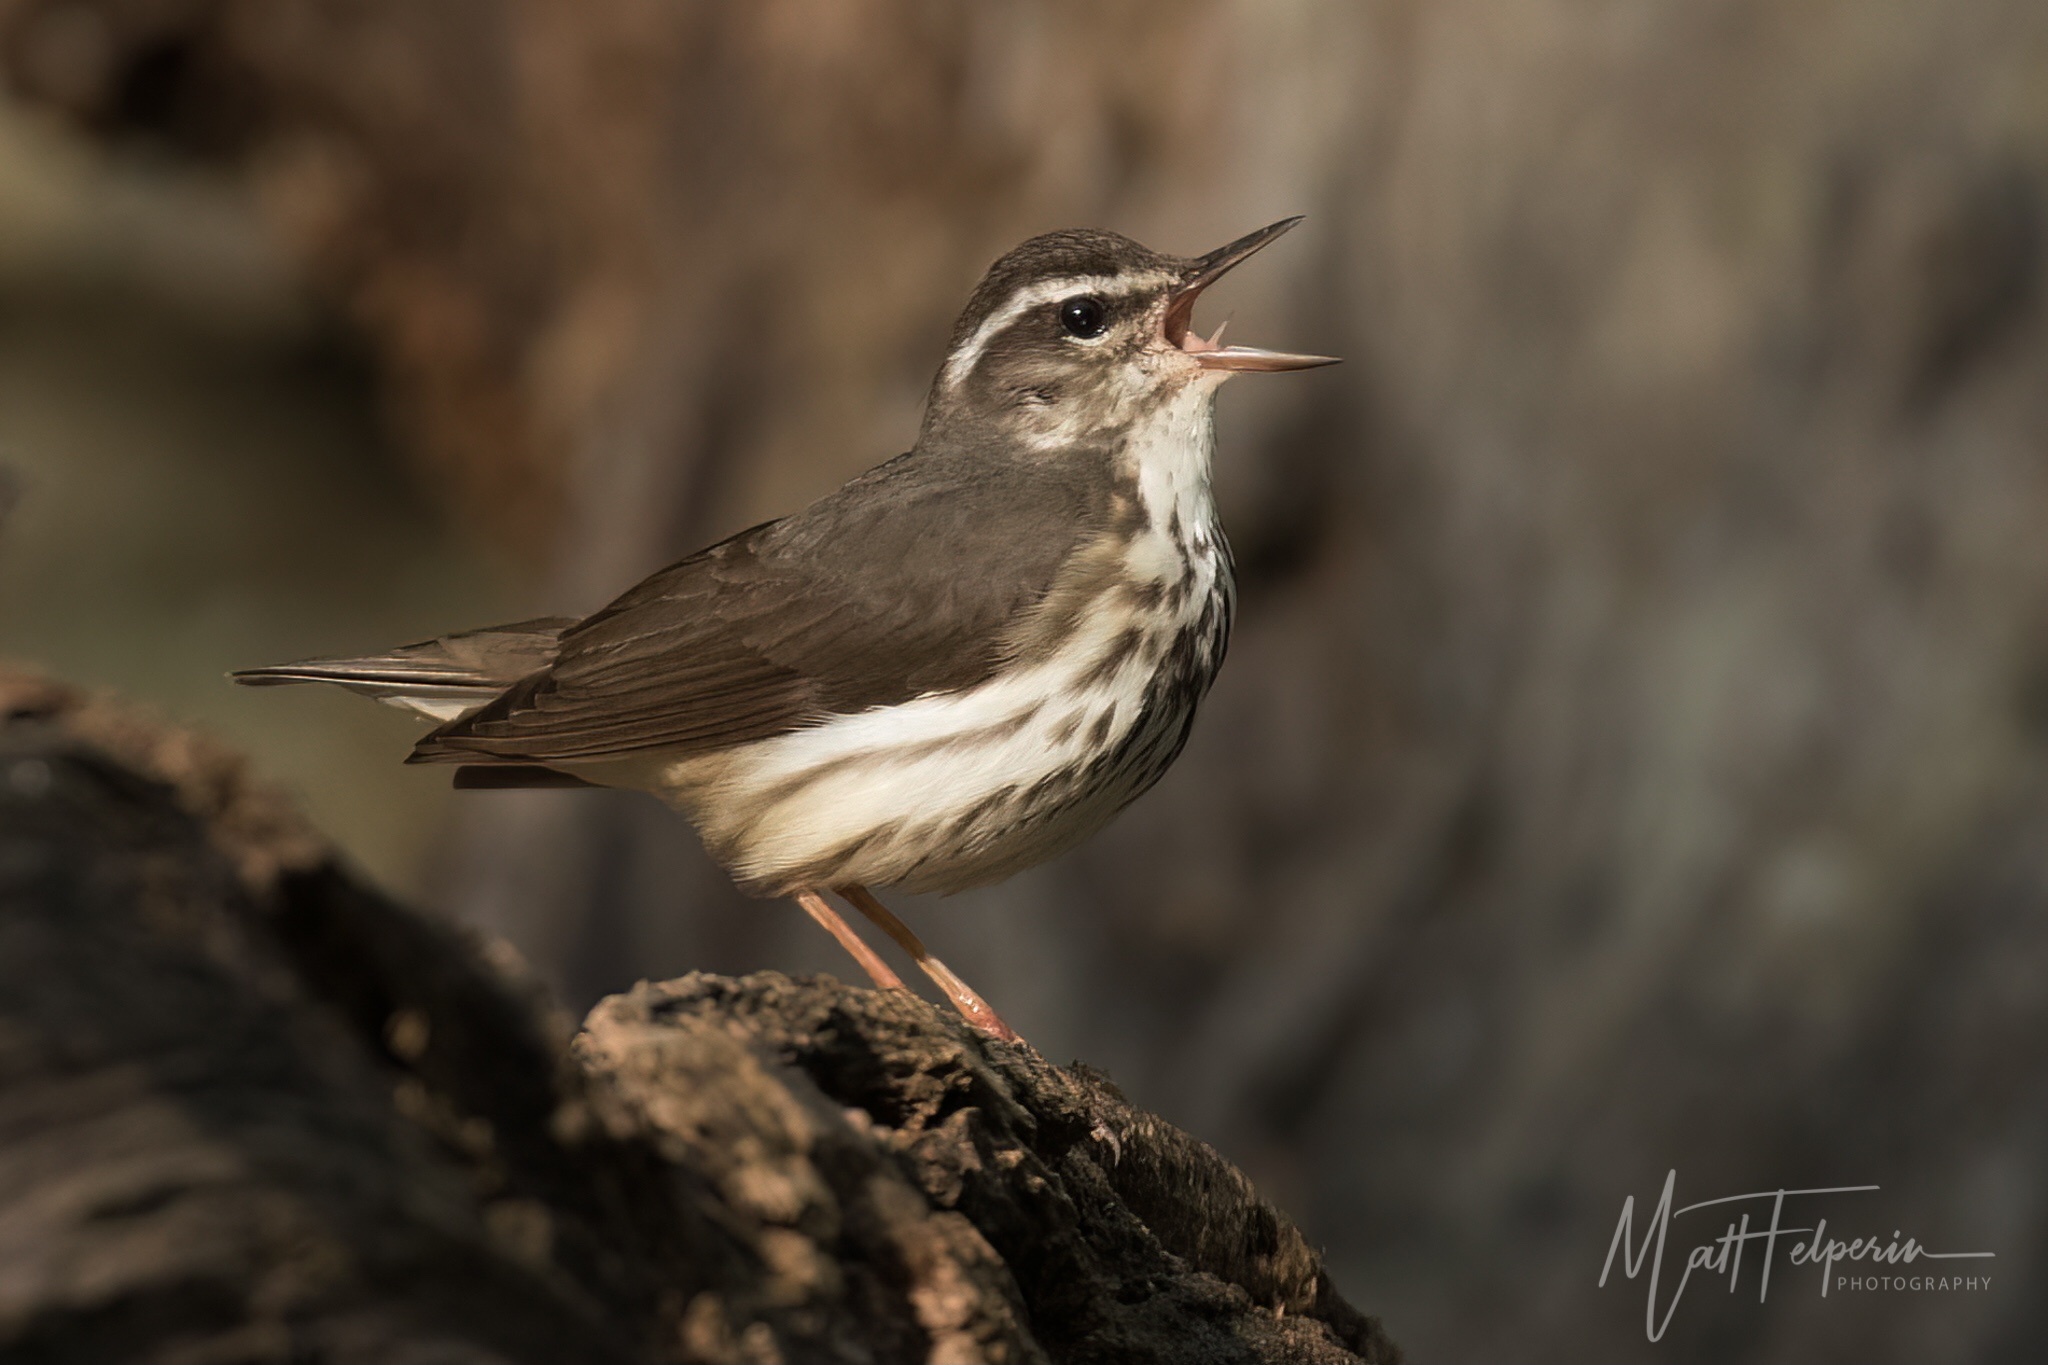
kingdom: Animalia
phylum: Chordata
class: Aves
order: Passeriformes
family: Parulidae
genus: Parkesia
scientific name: Parkesia motacilla
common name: Louisiana waterthrush
